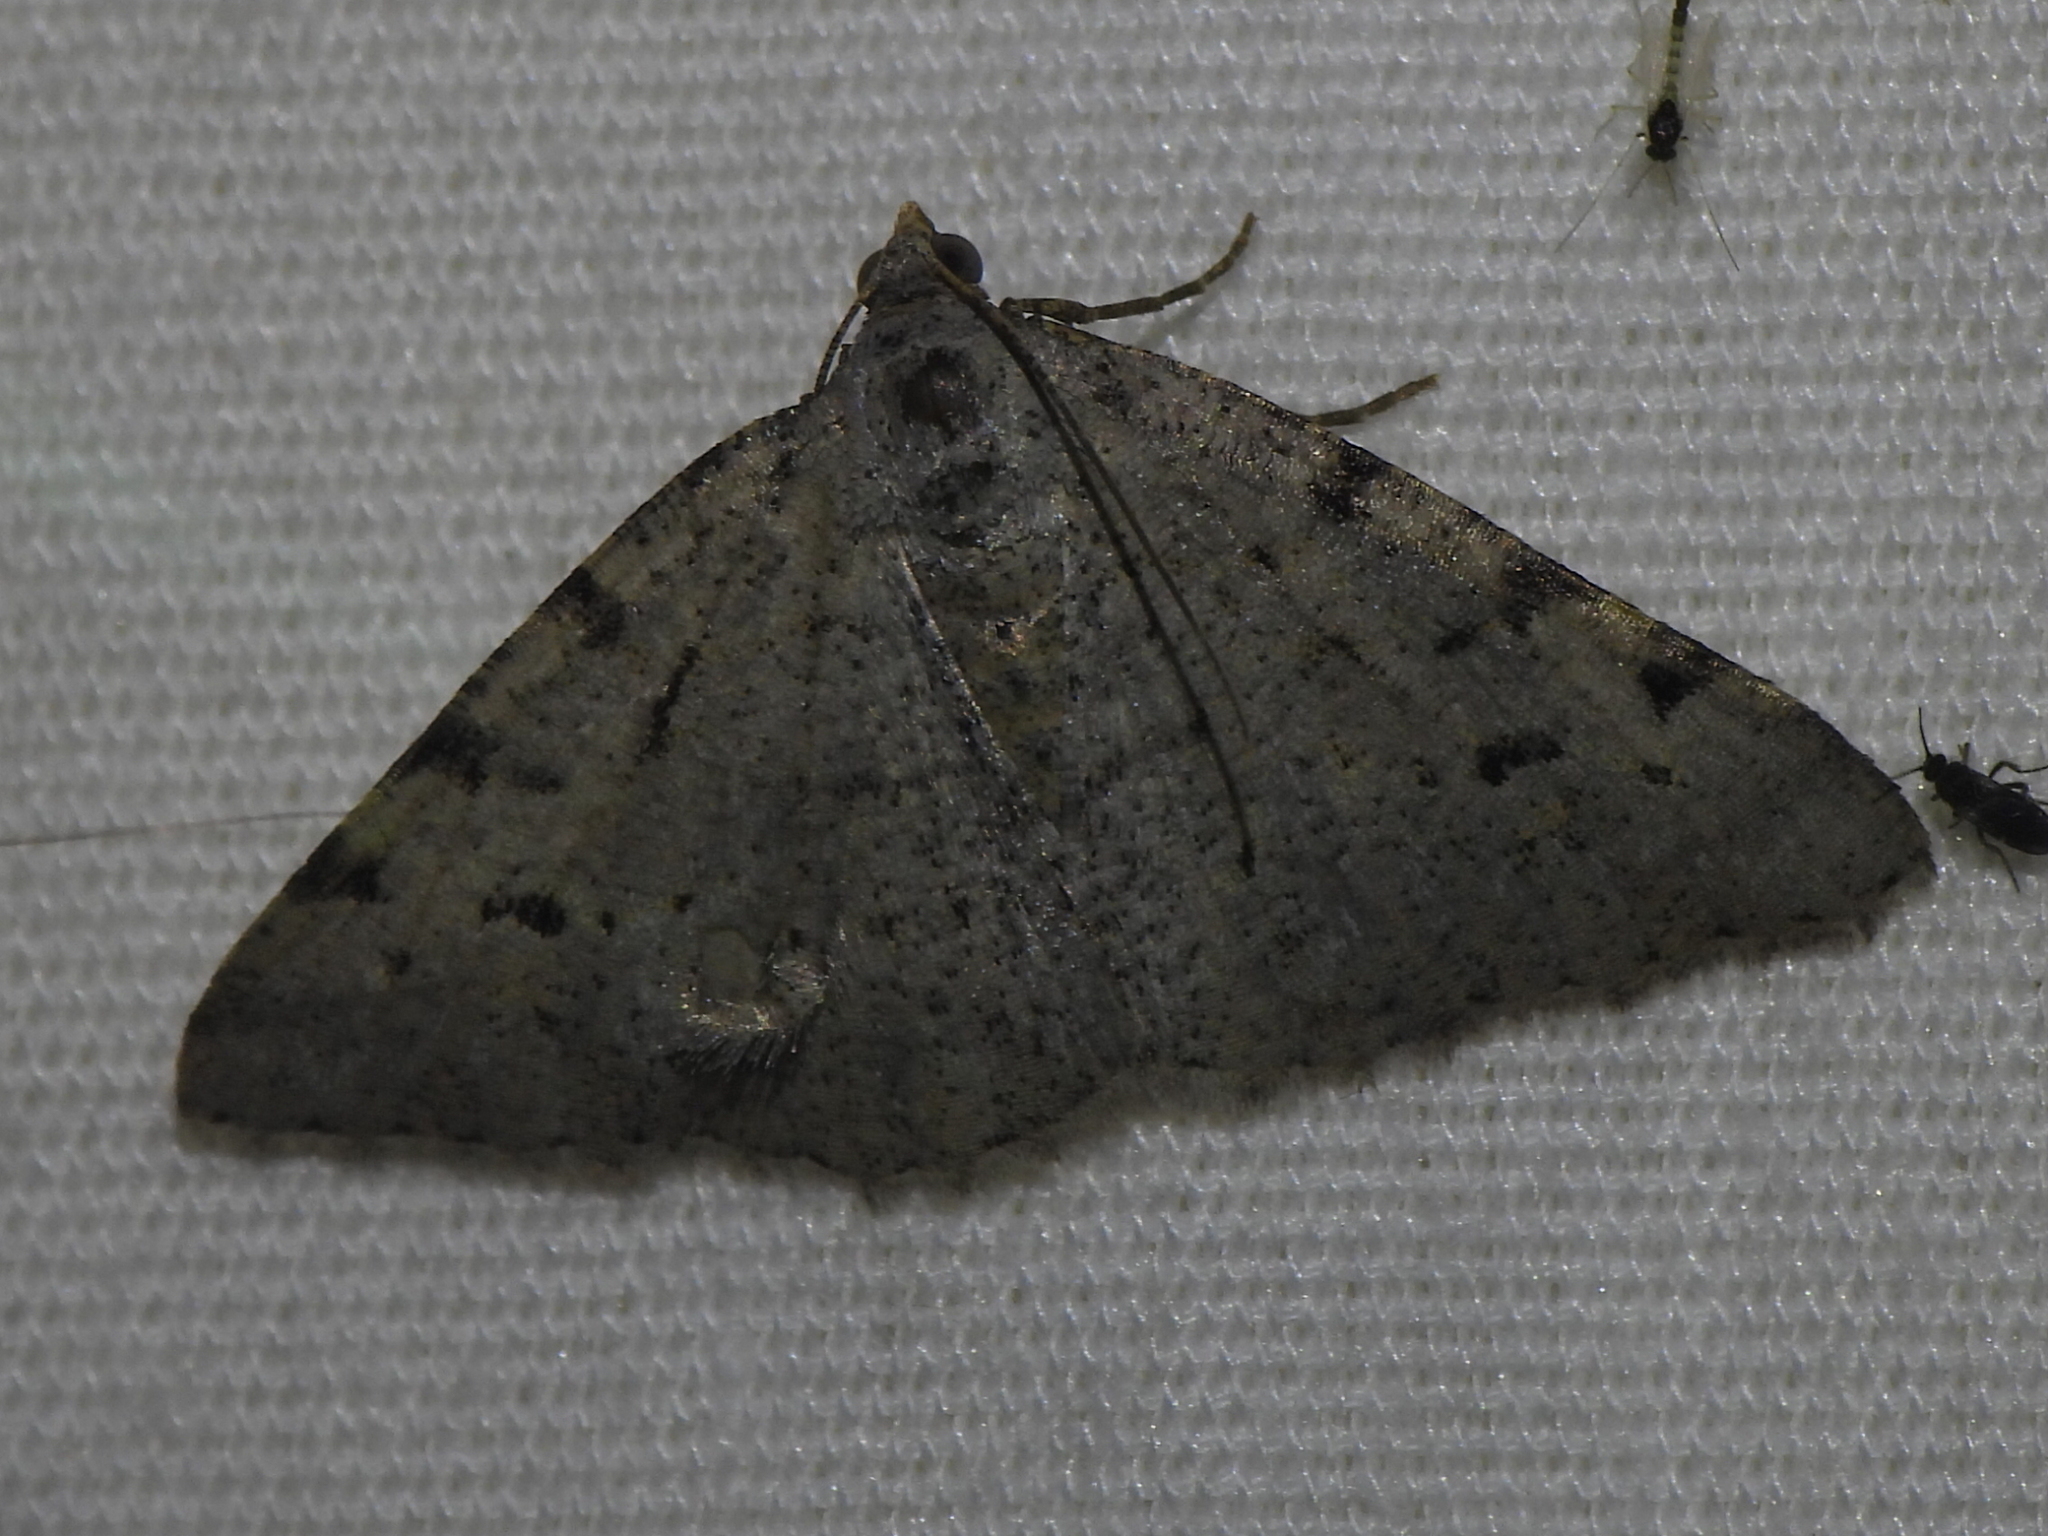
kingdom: Animalia
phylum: Arthropoda
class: Insecta
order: Lepidoptera
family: Geometridae
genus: Digrammia
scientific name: Digrammia pallidata
